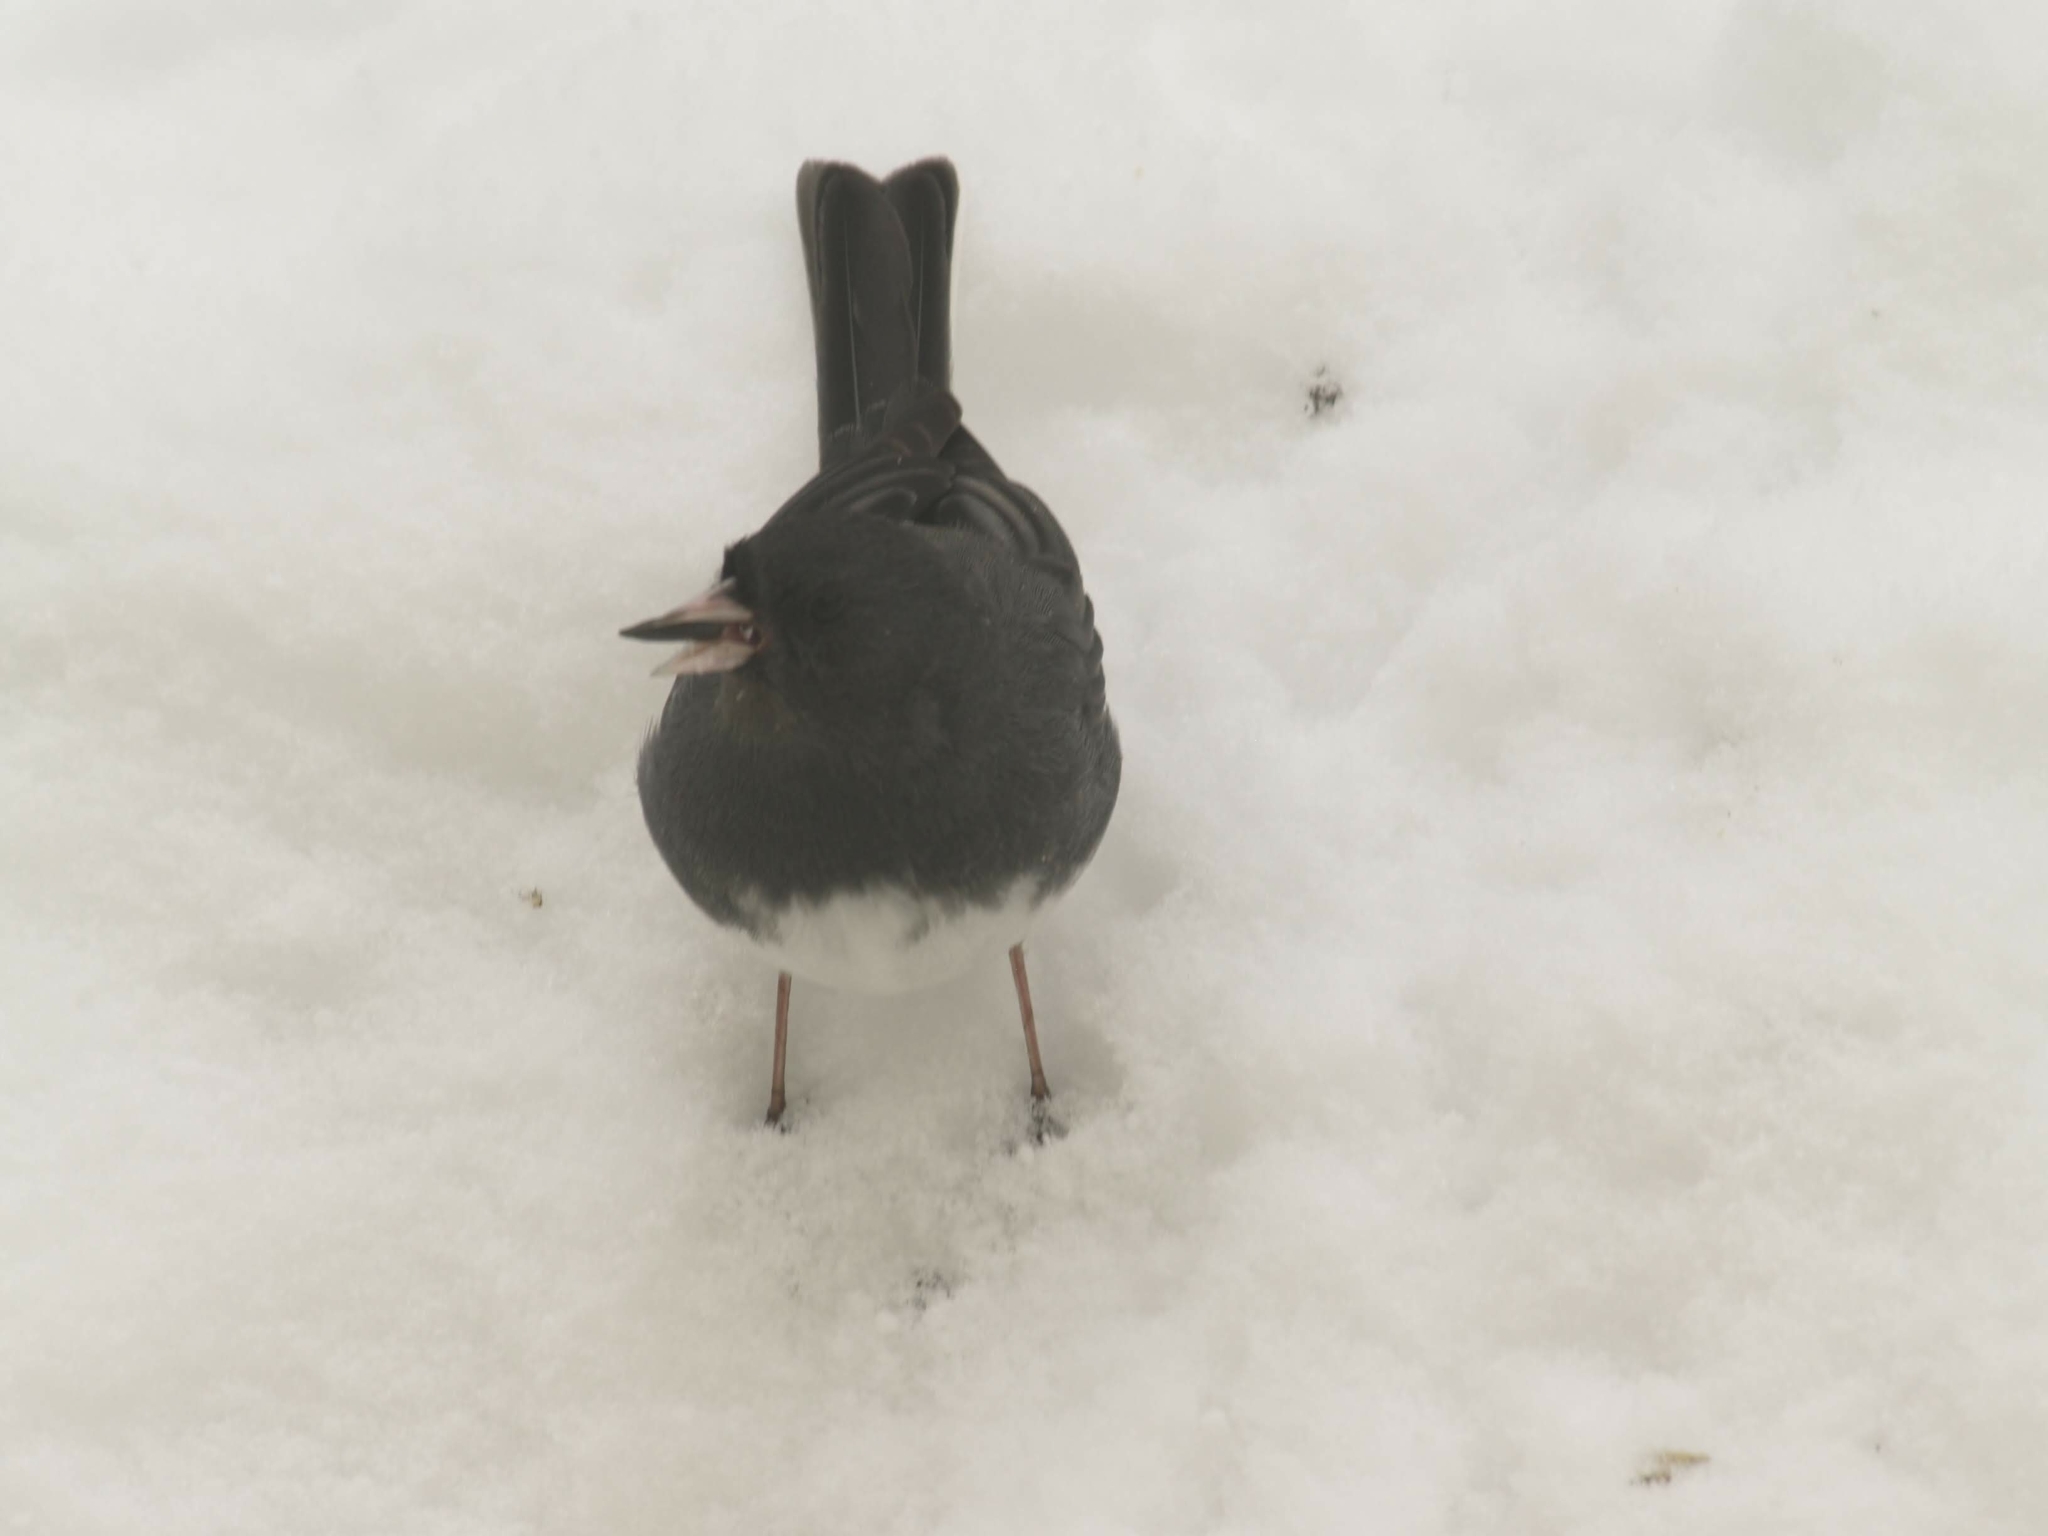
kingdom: Animalia
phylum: Chordata
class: Aves
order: Passeriformes
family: Passerellidae
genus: Junco
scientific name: Junco hyemalis
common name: Dark-eyed junco
